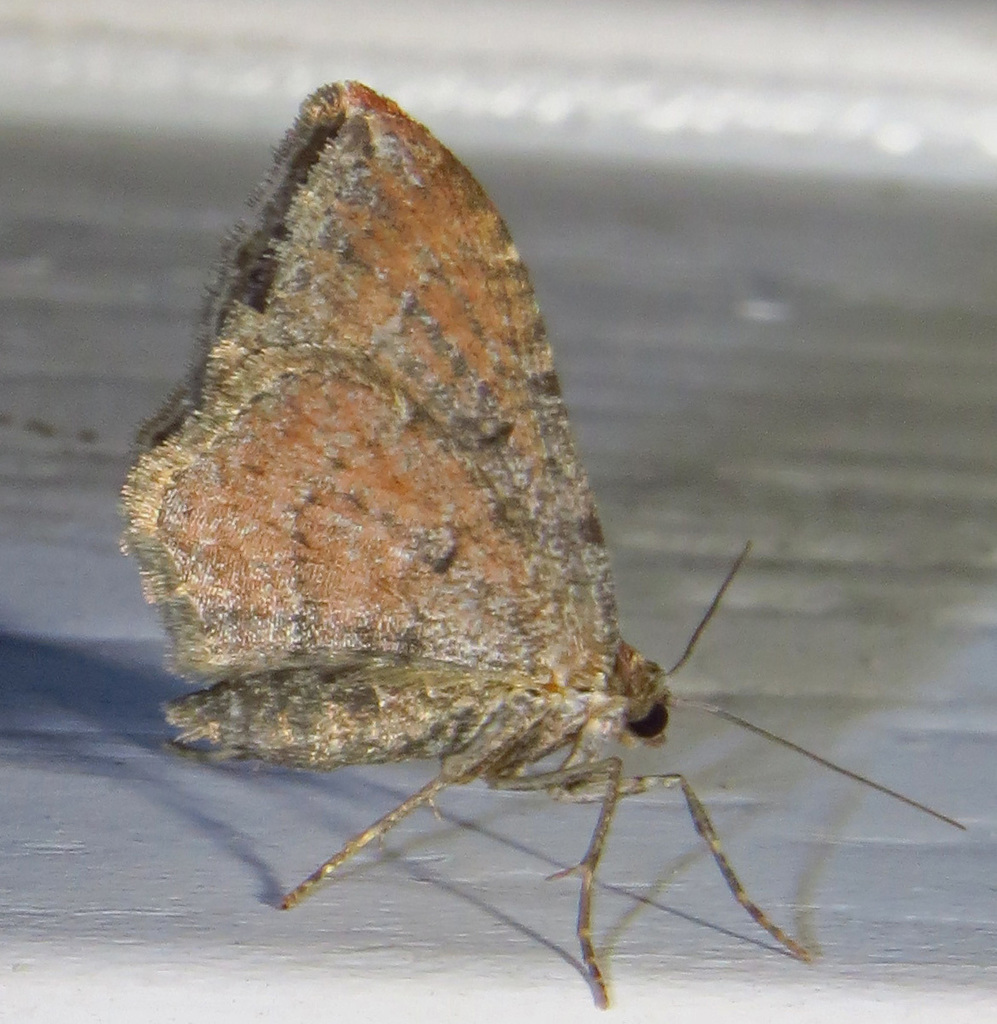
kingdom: Animalia
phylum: Arthropoda
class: Insecta
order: Lepidoptera
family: Geometridae
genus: Orthonama
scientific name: Orthonama obstipata
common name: The gem
